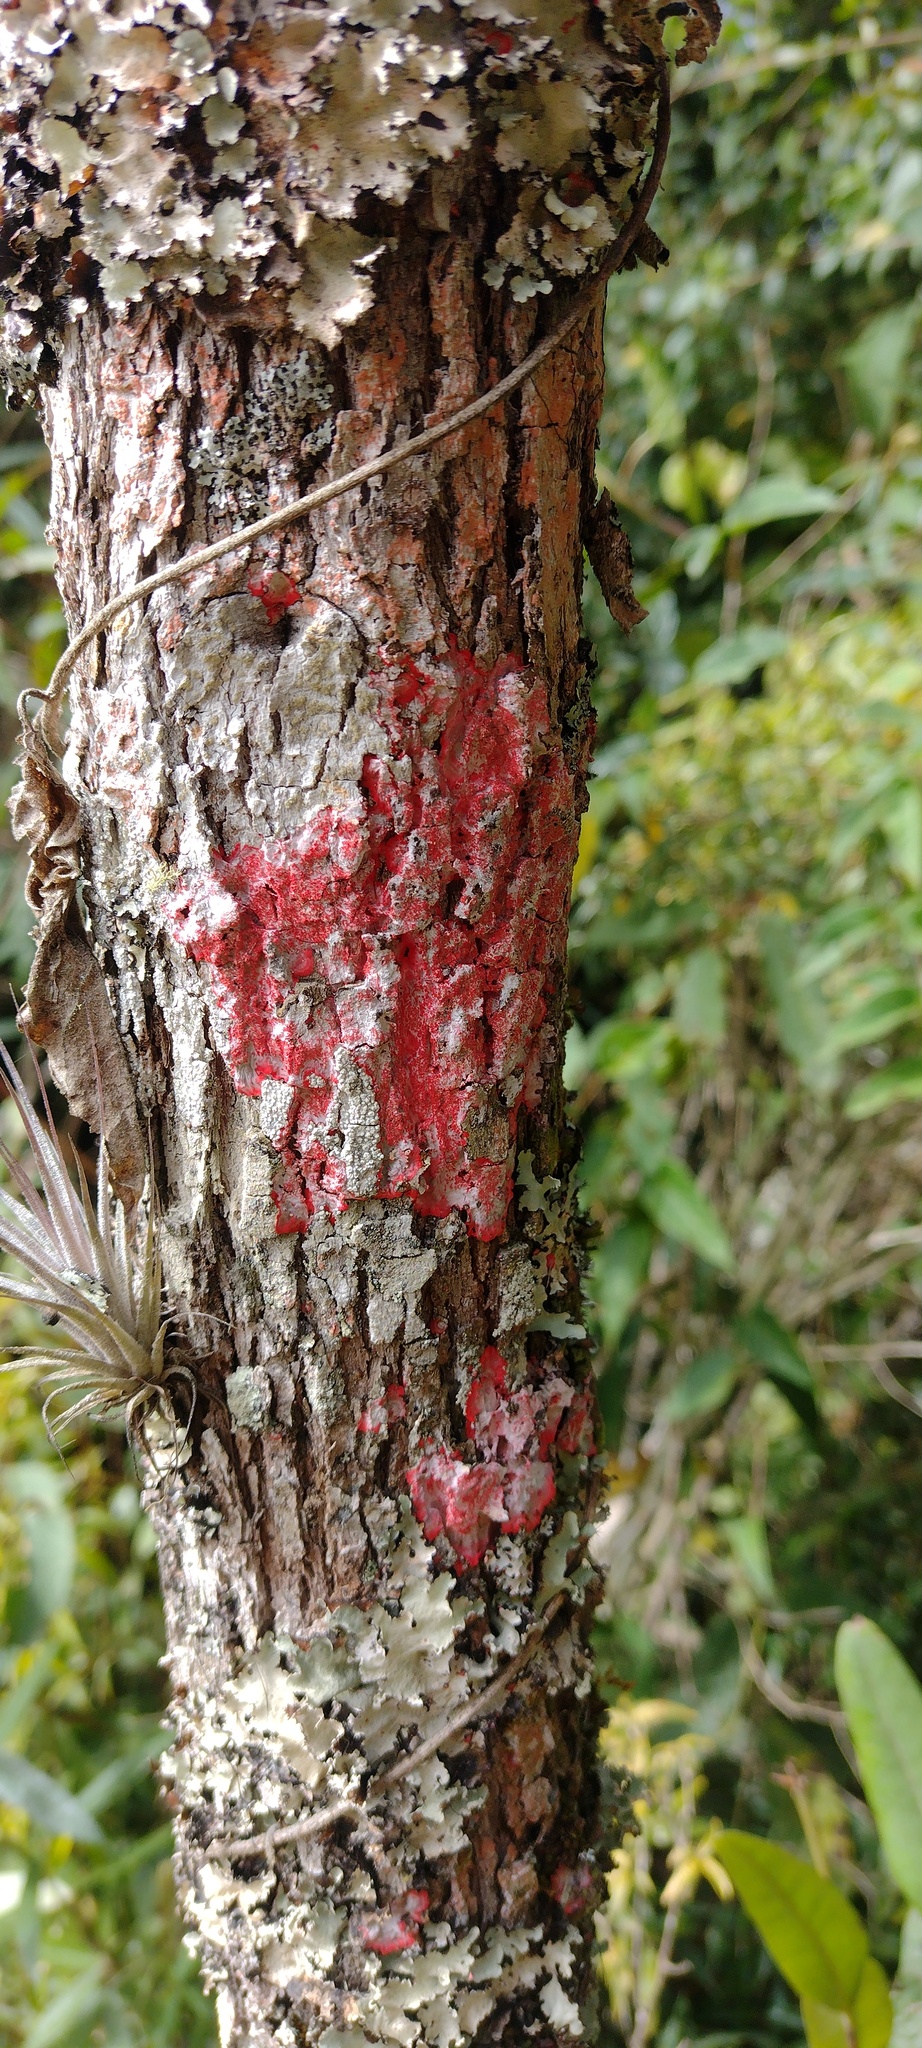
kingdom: Fungi
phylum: Ascomycota
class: Arthoniomycetes
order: Arthoniales
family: Arthoniaceae
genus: Herpothallon
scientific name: Herpothallon rubrocinctum
